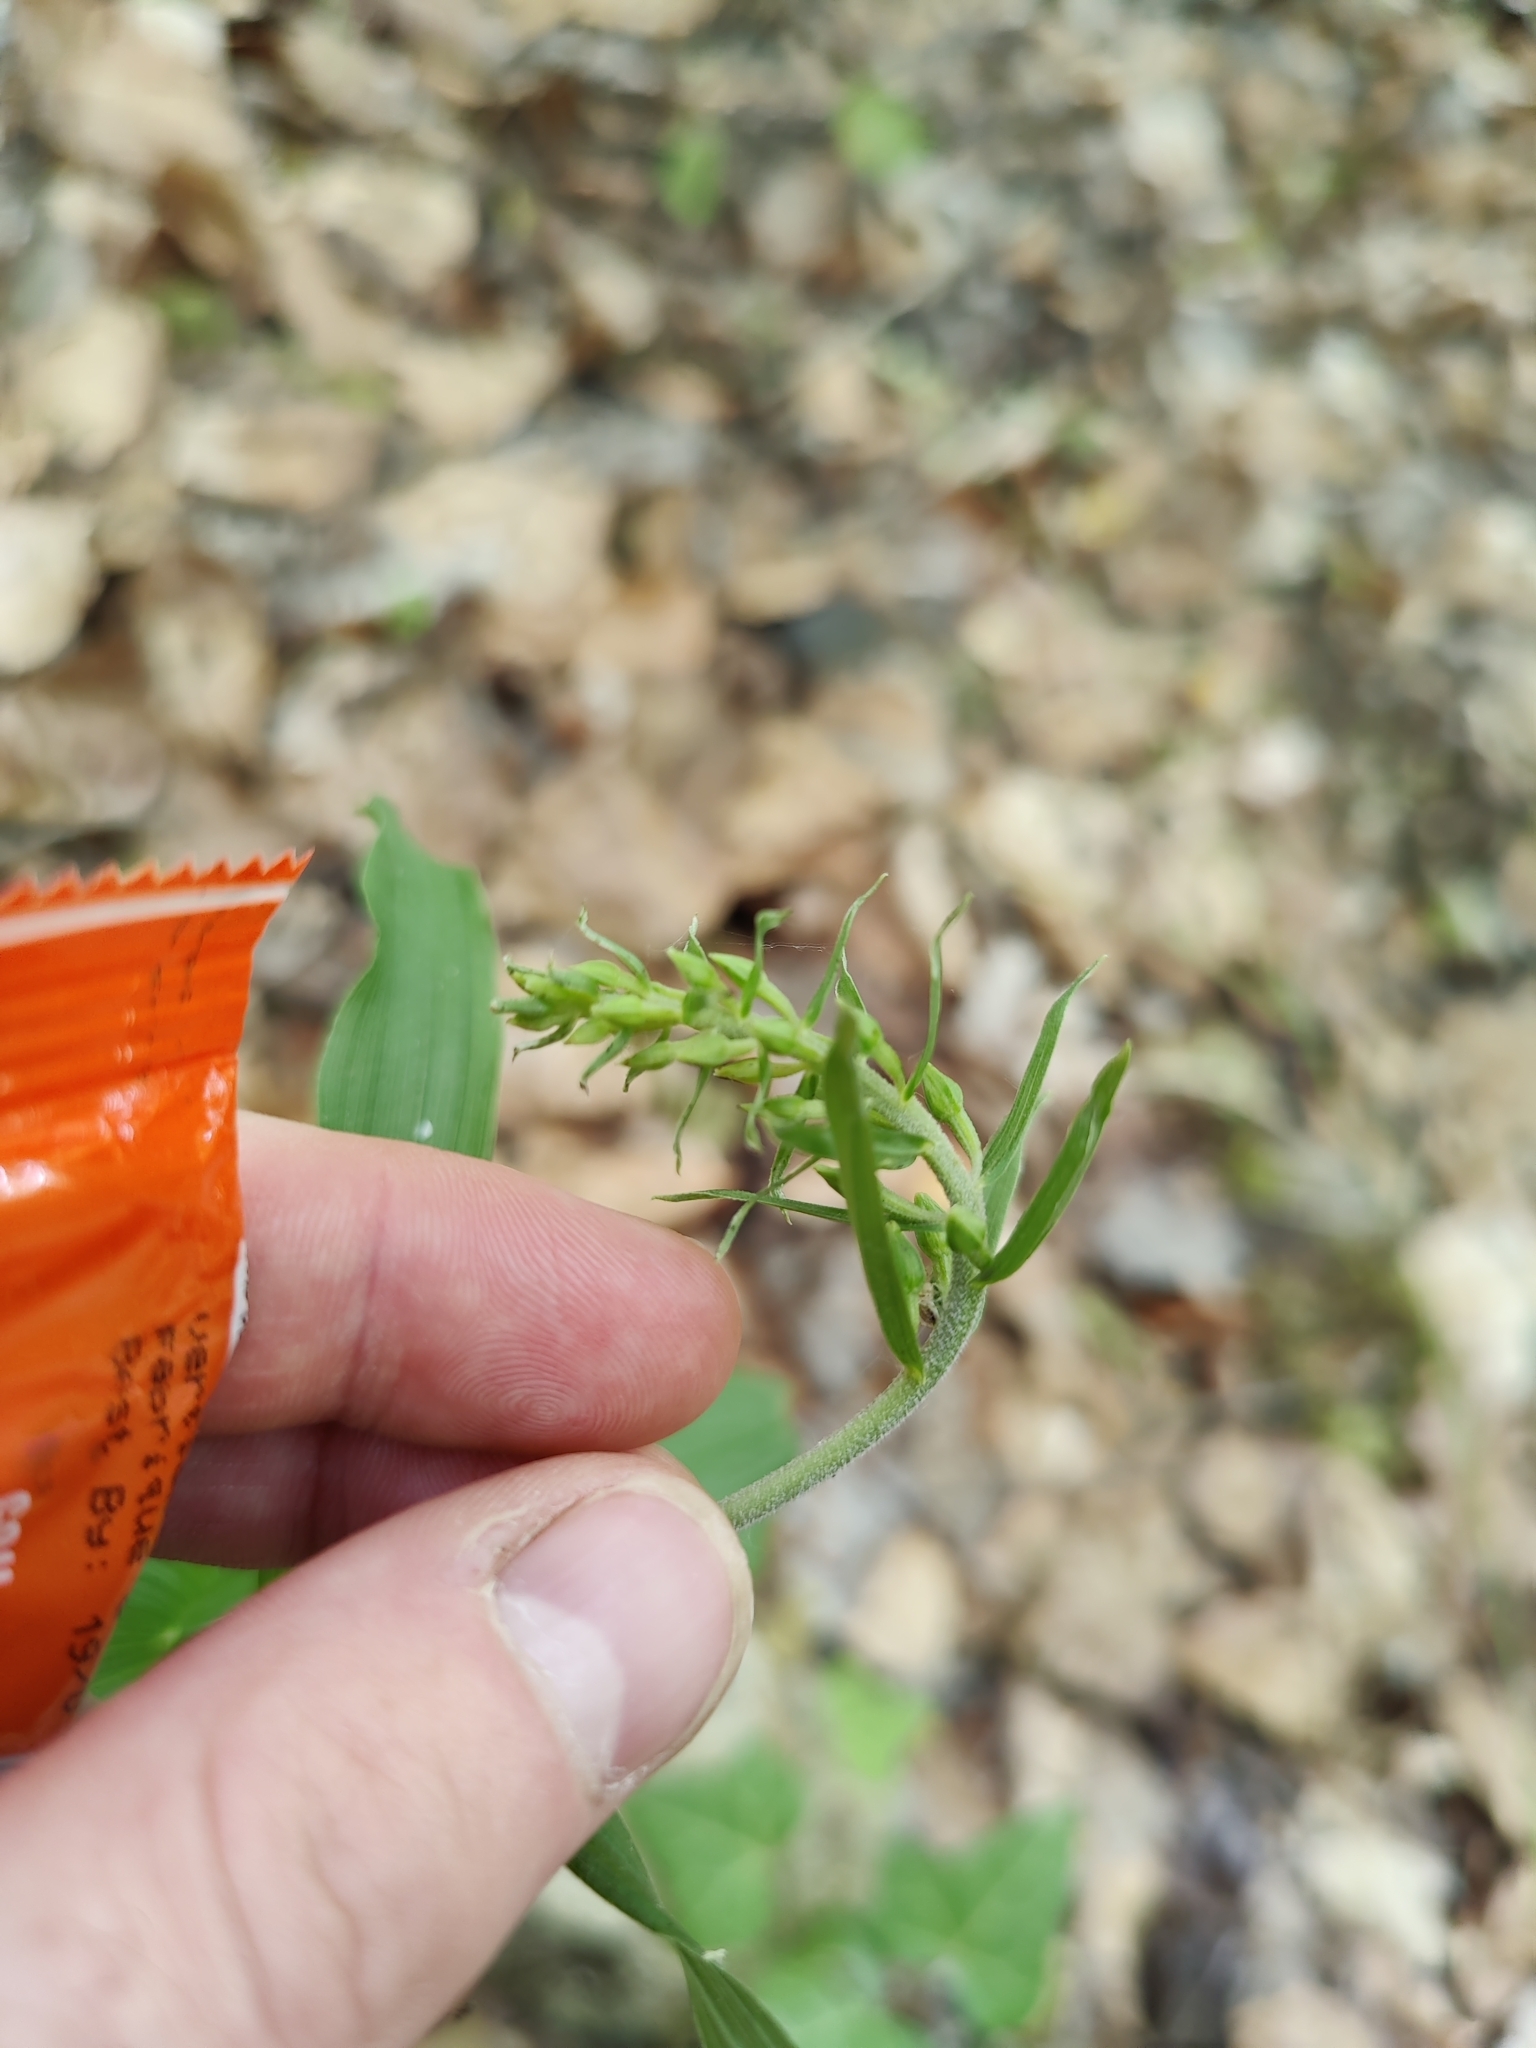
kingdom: Plantae
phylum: Tracheophyta
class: Liliopsida
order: Asparagales
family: Orchidaceae
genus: Epipactis
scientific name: Epipactis helleborine
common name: Broad-leaved helleborine
